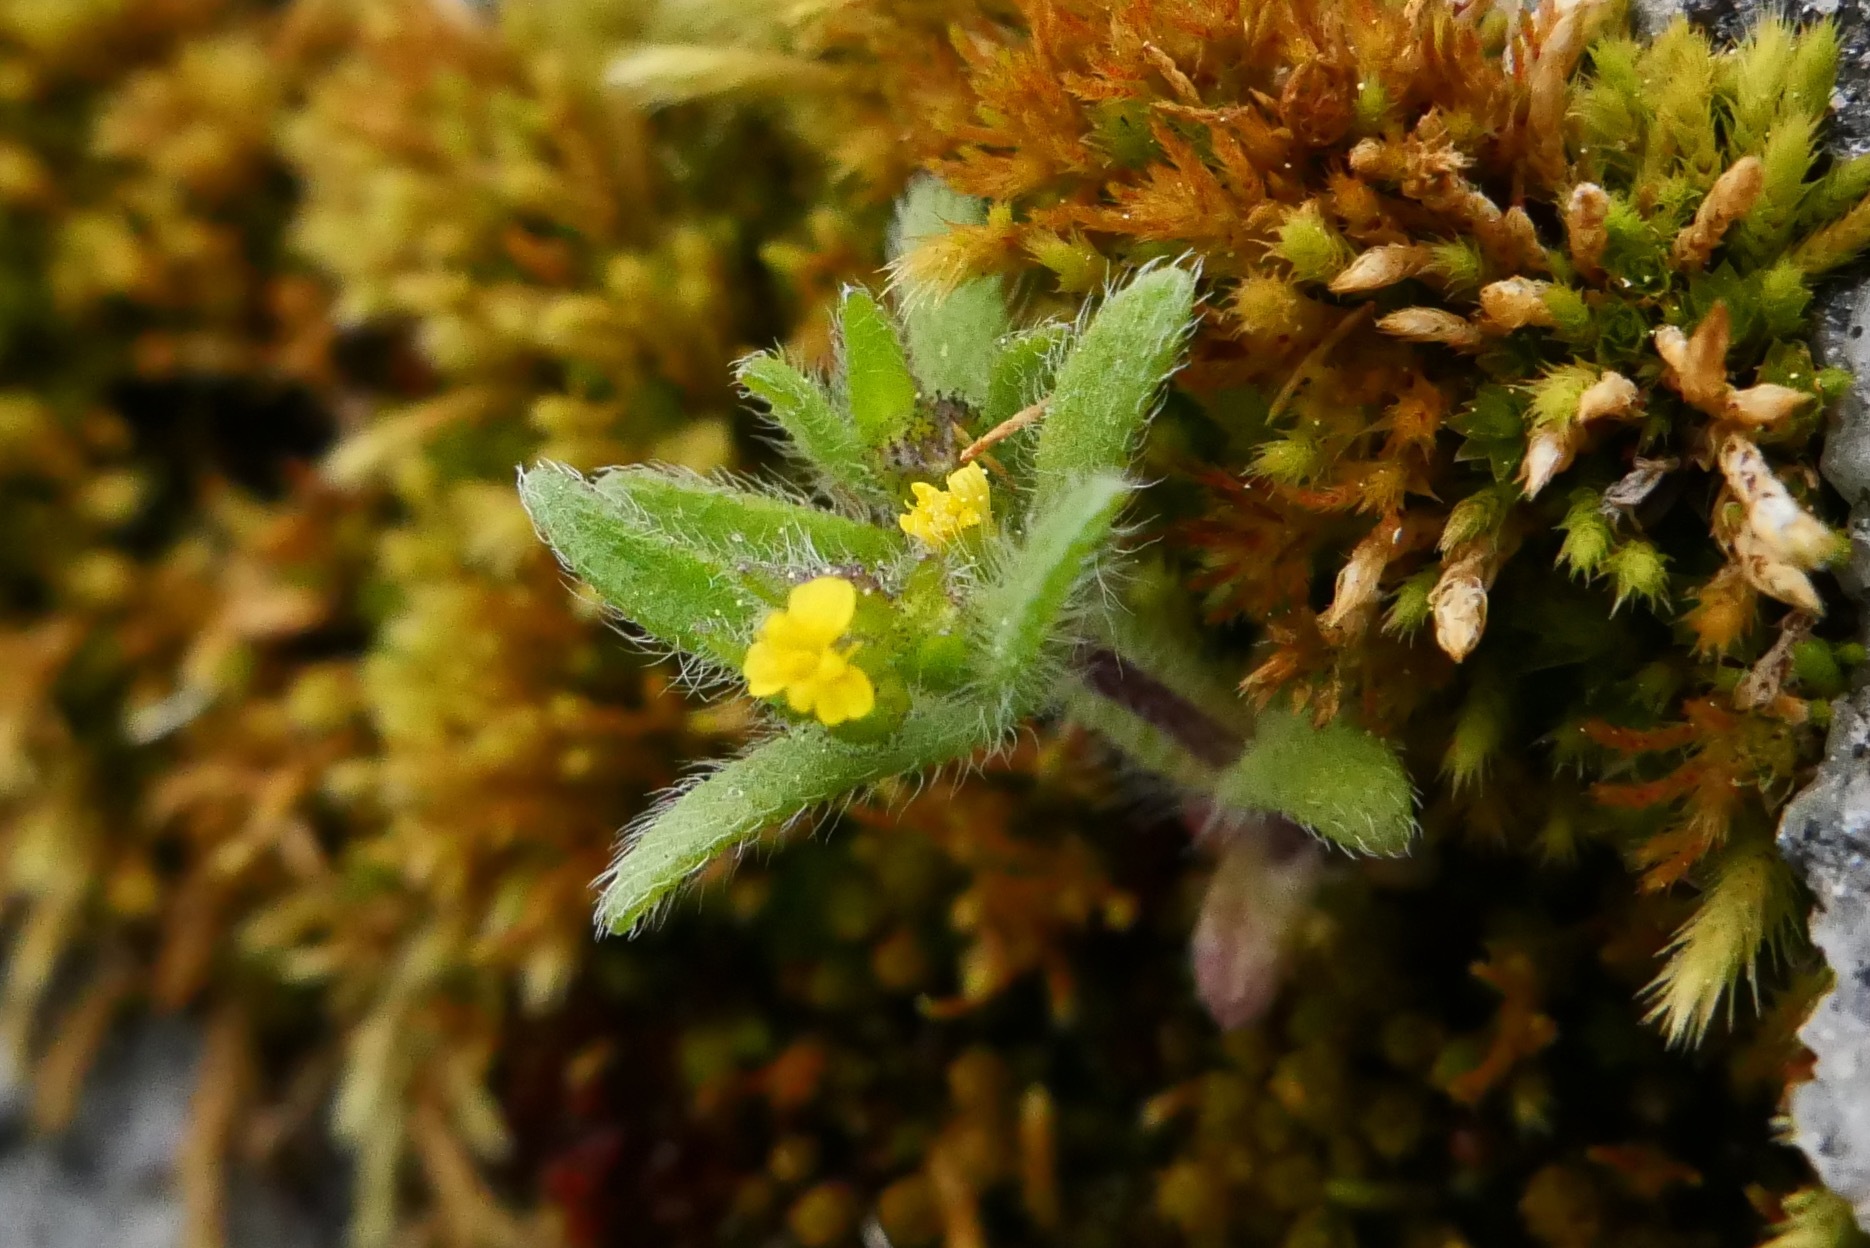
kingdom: Plantae
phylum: Tracheophyta
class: Magnoliopsida
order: Asterales
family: Asteraceae
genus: Hemizonella
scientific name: Hemizonella minima
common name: Opposite-leaved tarweed
